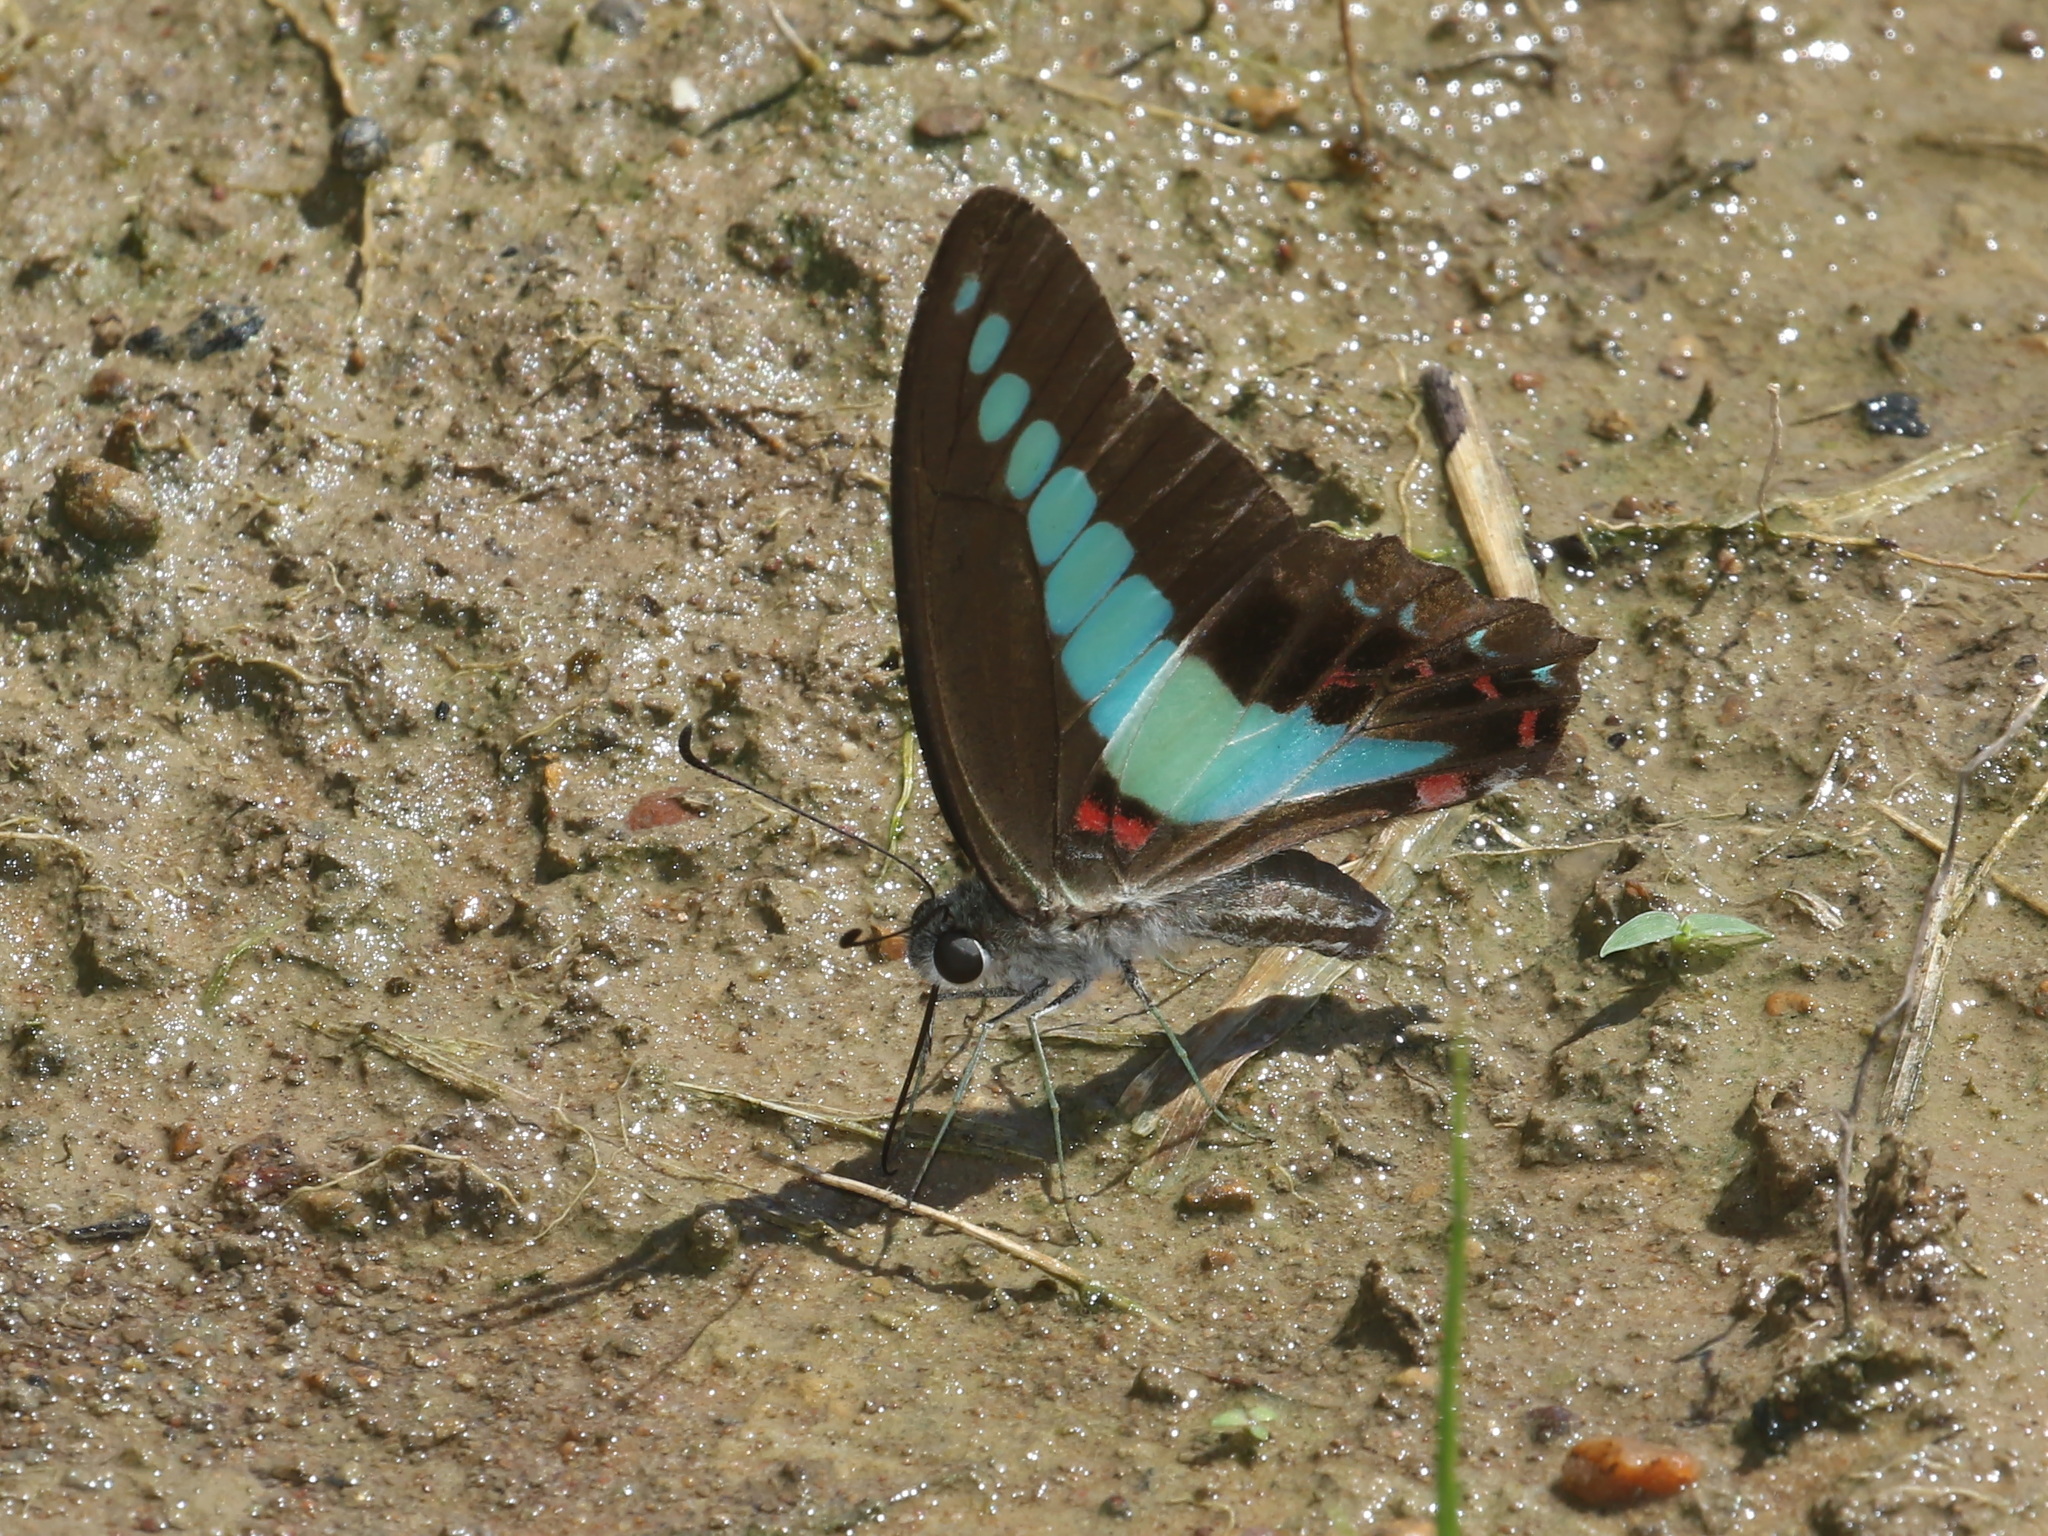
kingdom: Fungi
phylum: Ascomycota
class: Sordariomycetes
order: Microascales
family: Microascaceae
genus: Graphium
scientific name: Graphium sarpedon
